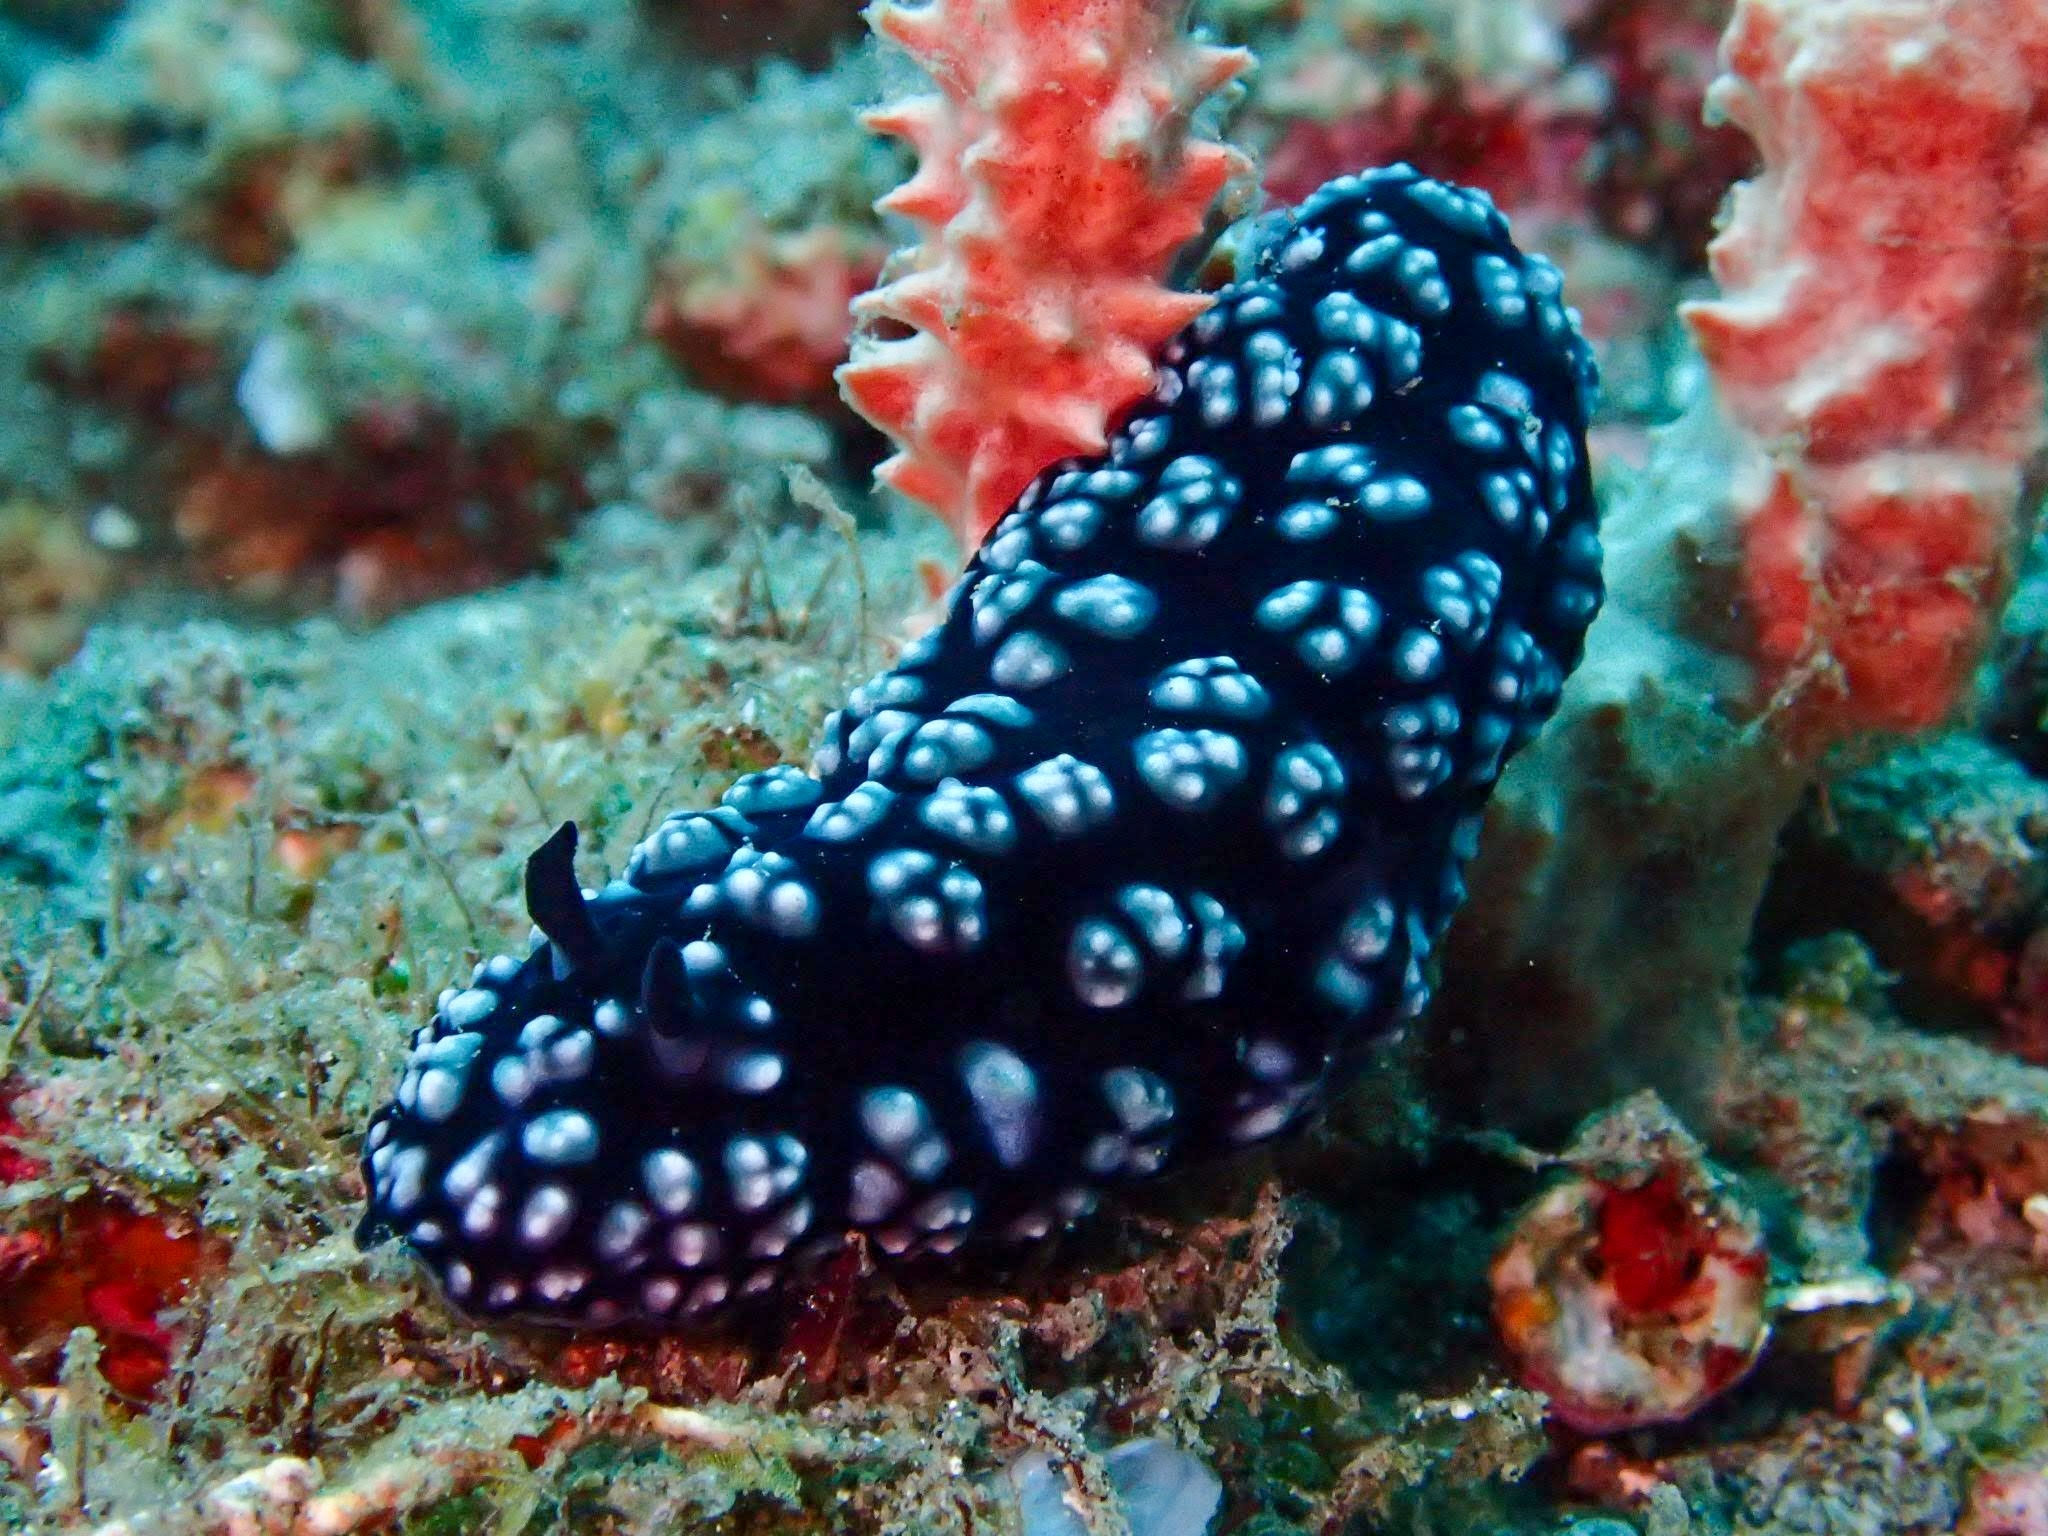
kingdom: Animalia
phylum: Mollusca
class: Gastropoda
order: Nudibranchia
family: Phyllidiidae
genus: Phyllidiella
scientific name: Phyllidiella pustulosa
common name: Pustular phyllidia
